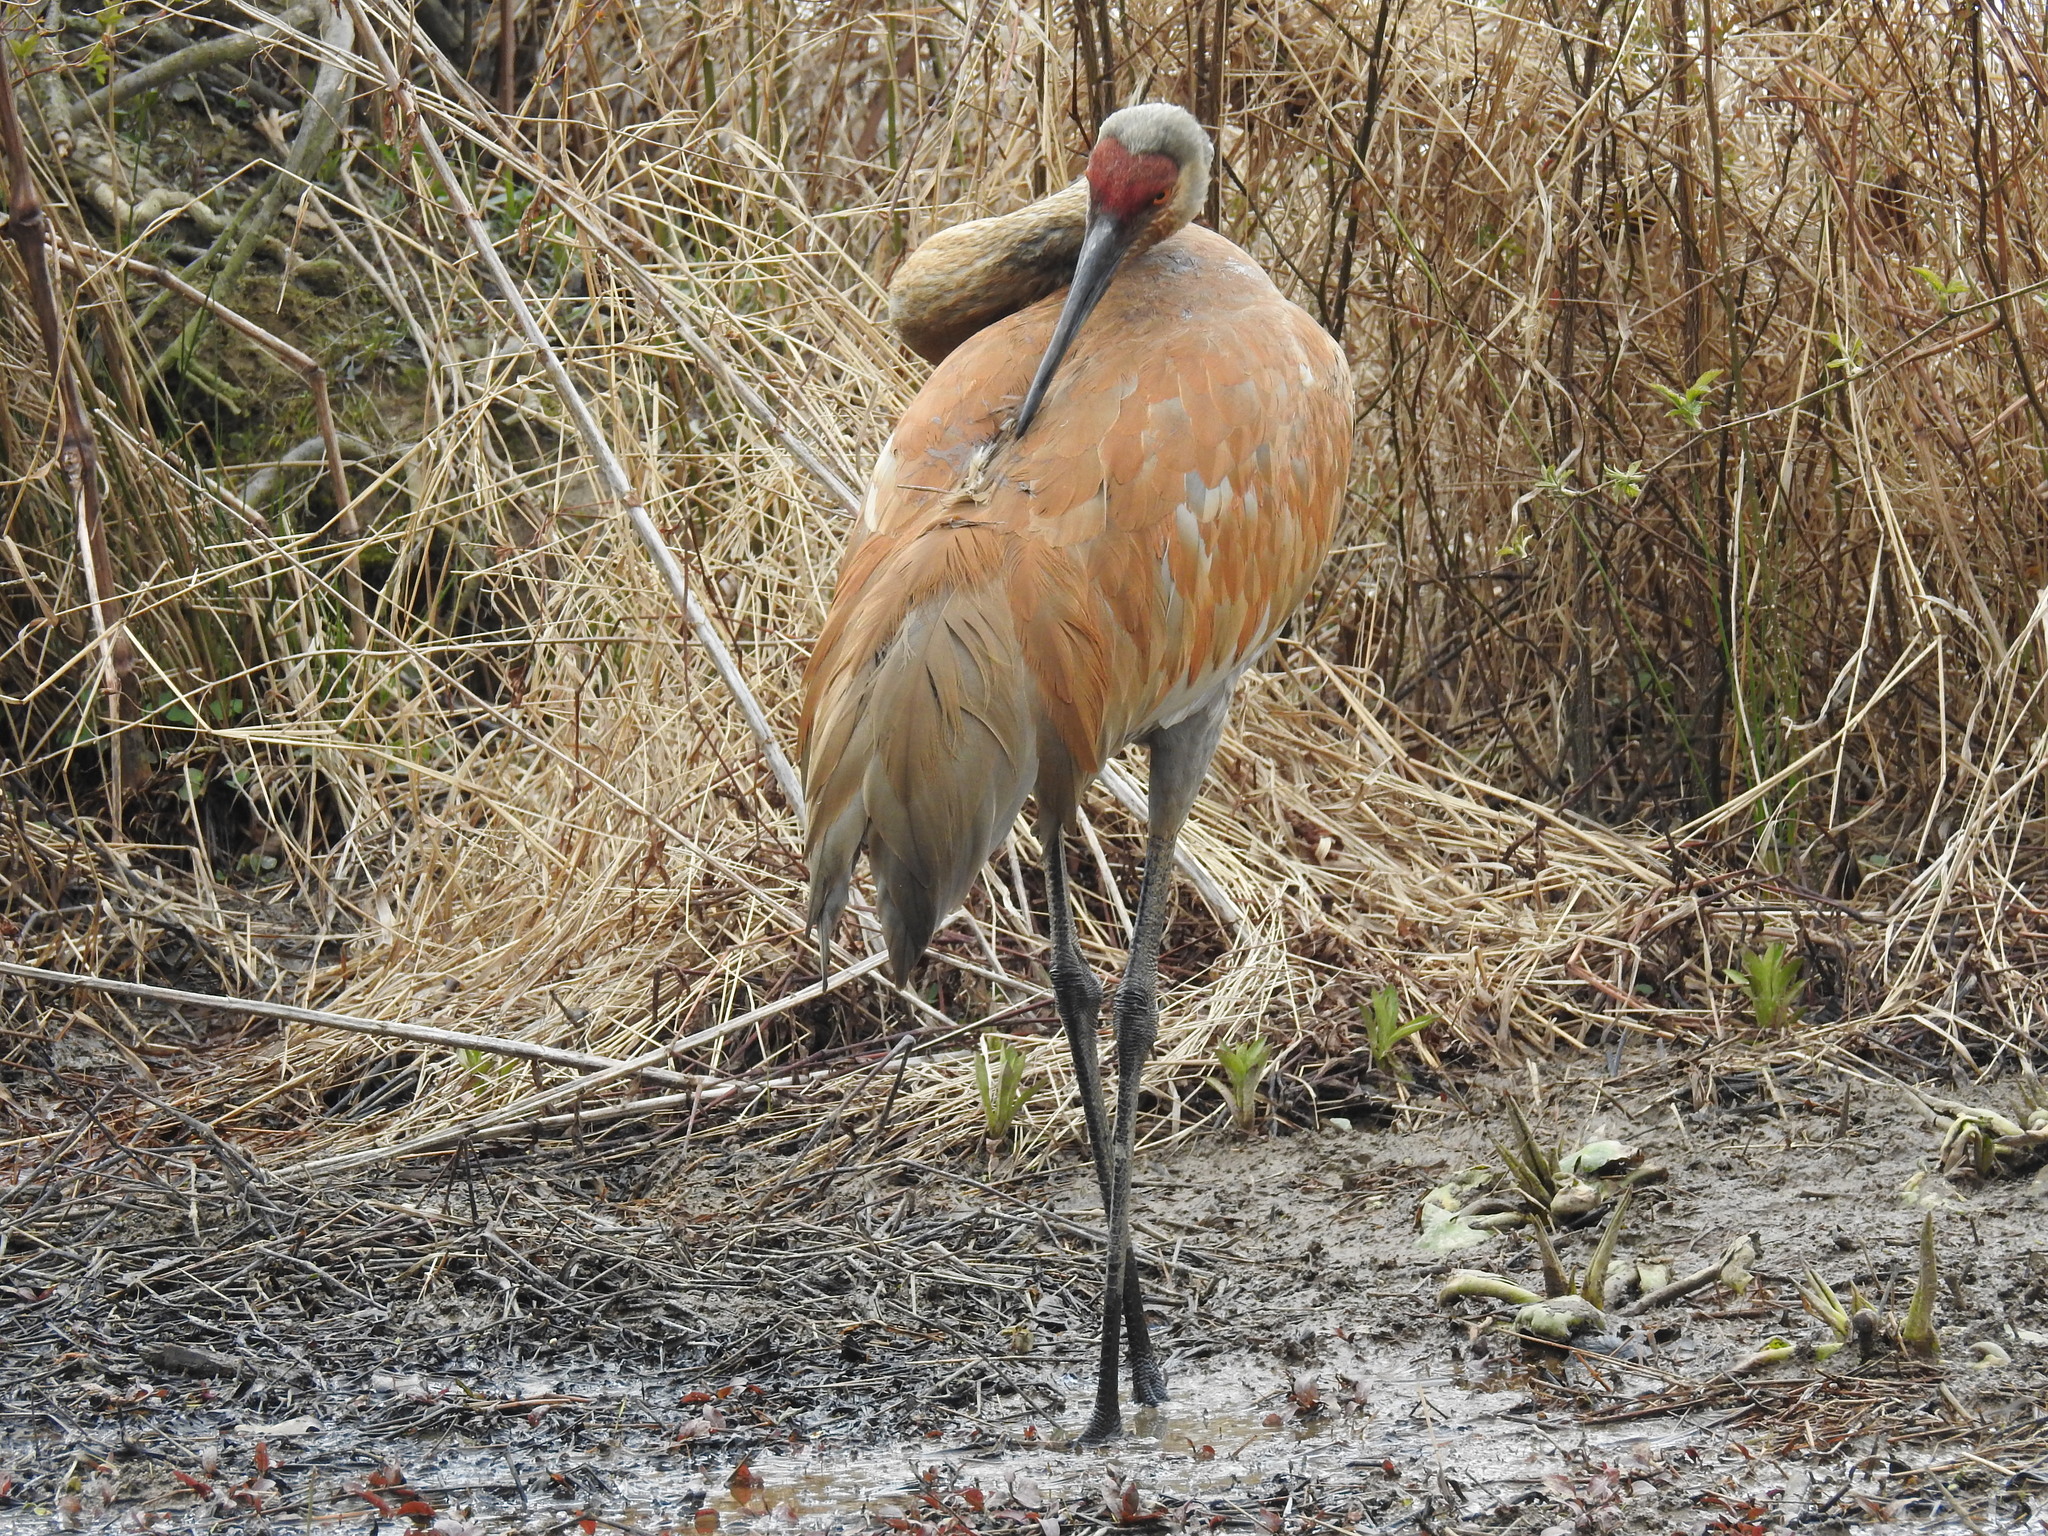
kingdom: Animalia
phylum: Chordata
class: Aves
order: Gruiformes
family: Gruidae
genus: Grus
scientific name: Grus canadensis
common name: Sandhill crane
